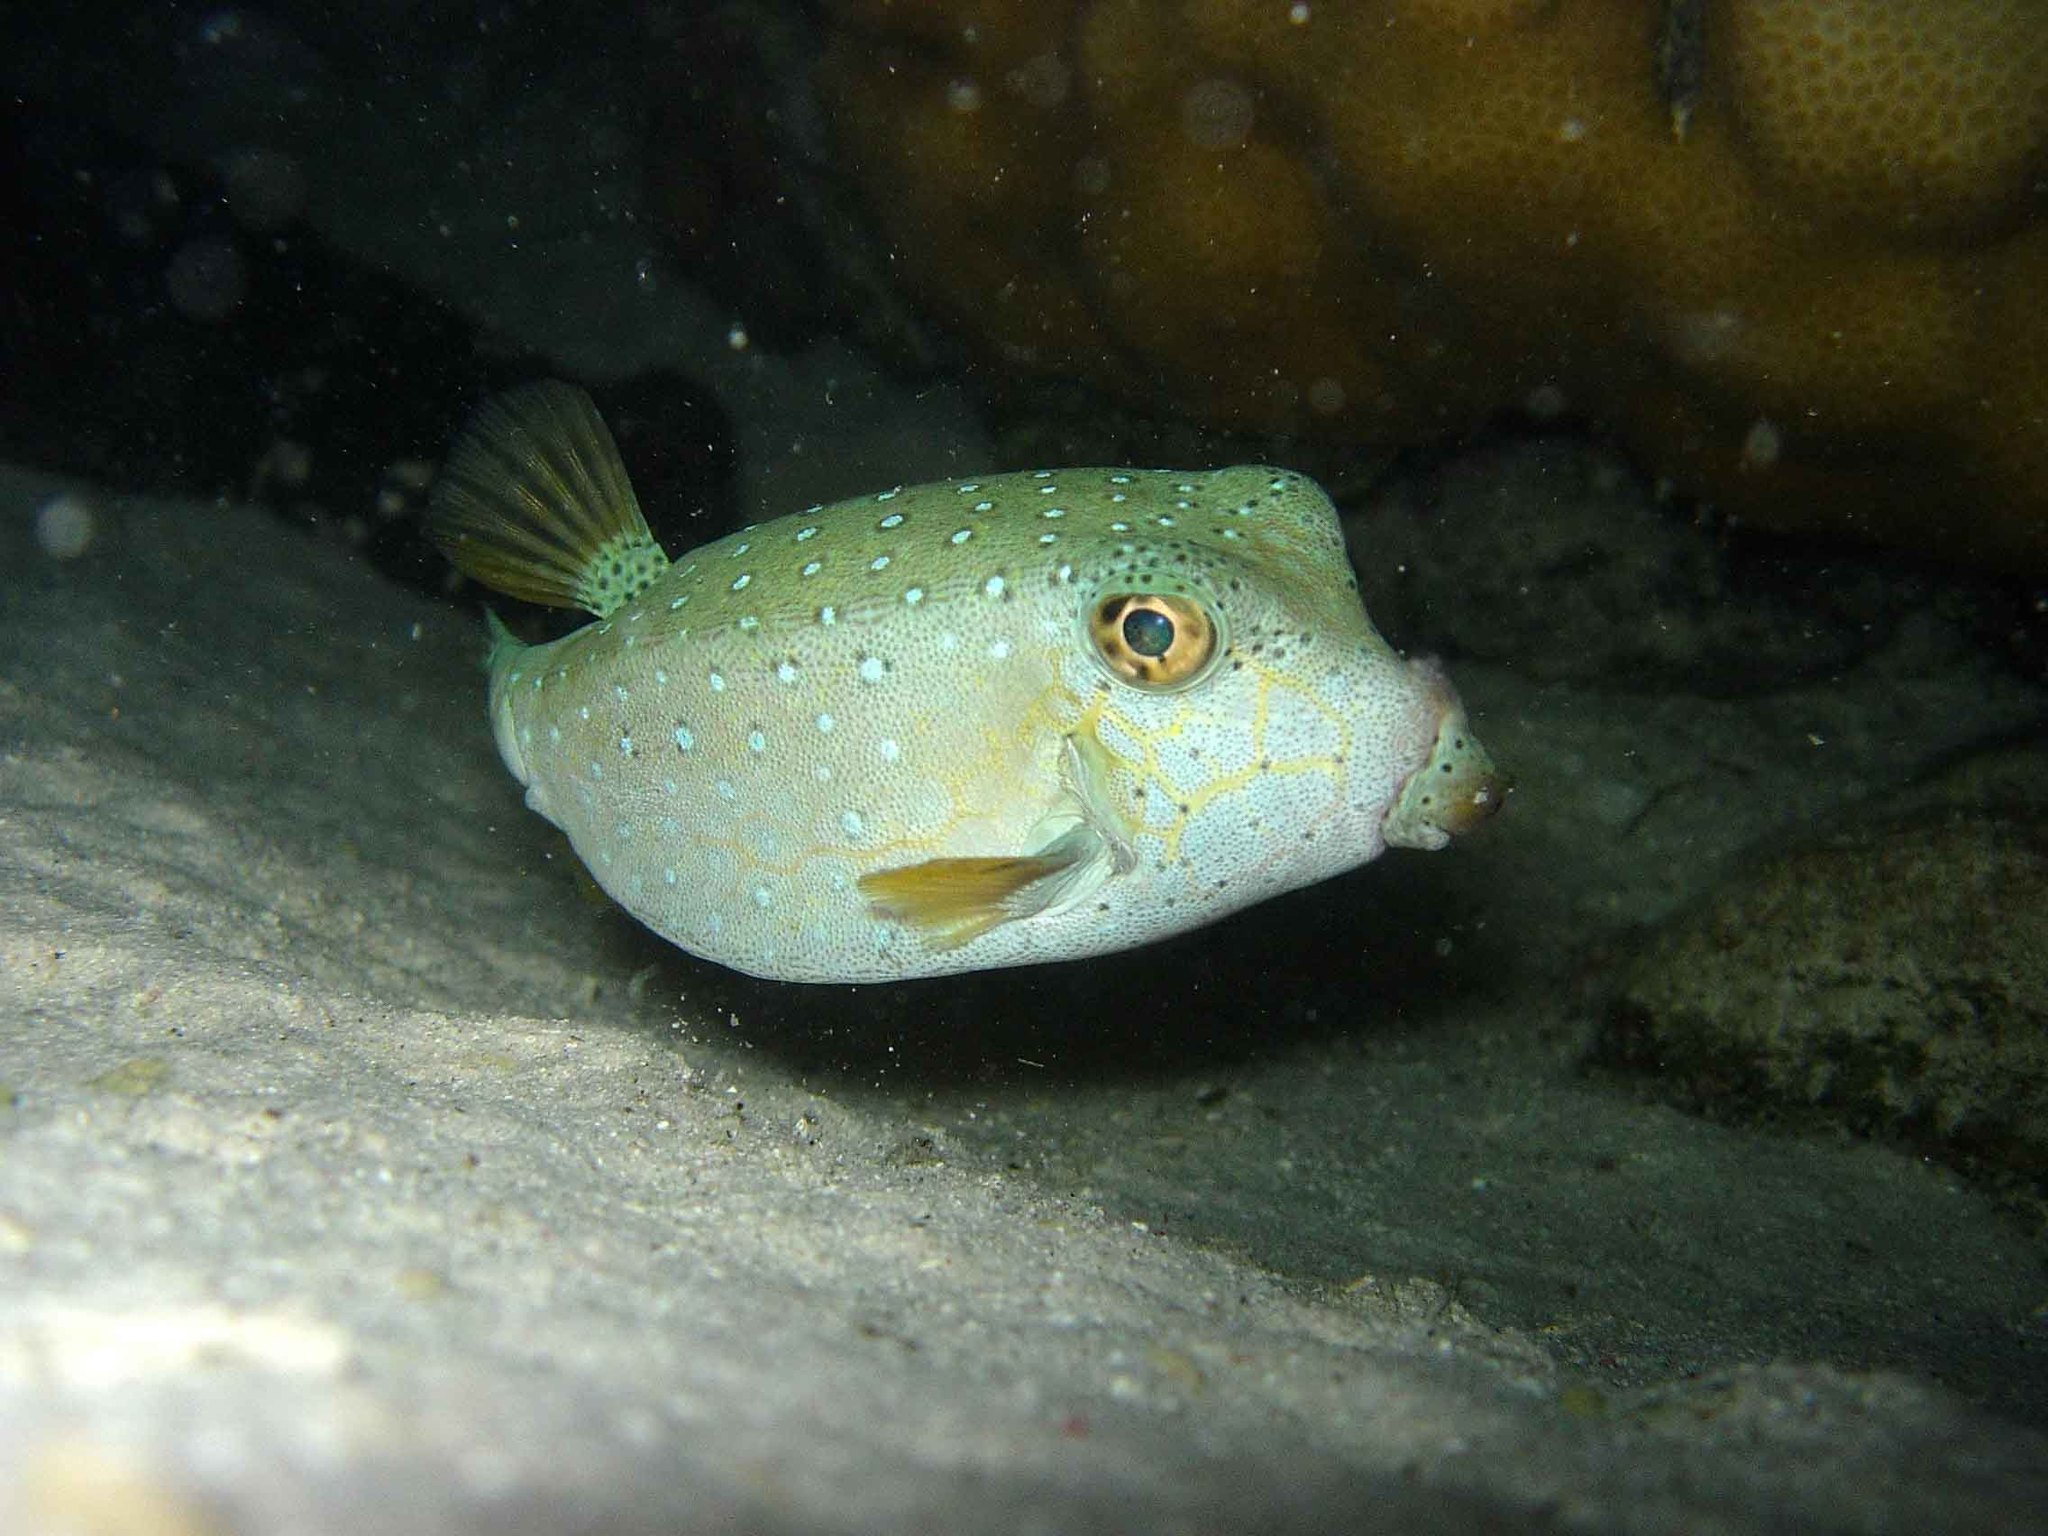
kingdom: Animalia
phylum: Chordata
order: Tetraodontiformes
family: Ostraciidae
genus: Ostracion
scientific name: Ostracion cubicus
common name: Cube trunkfish
